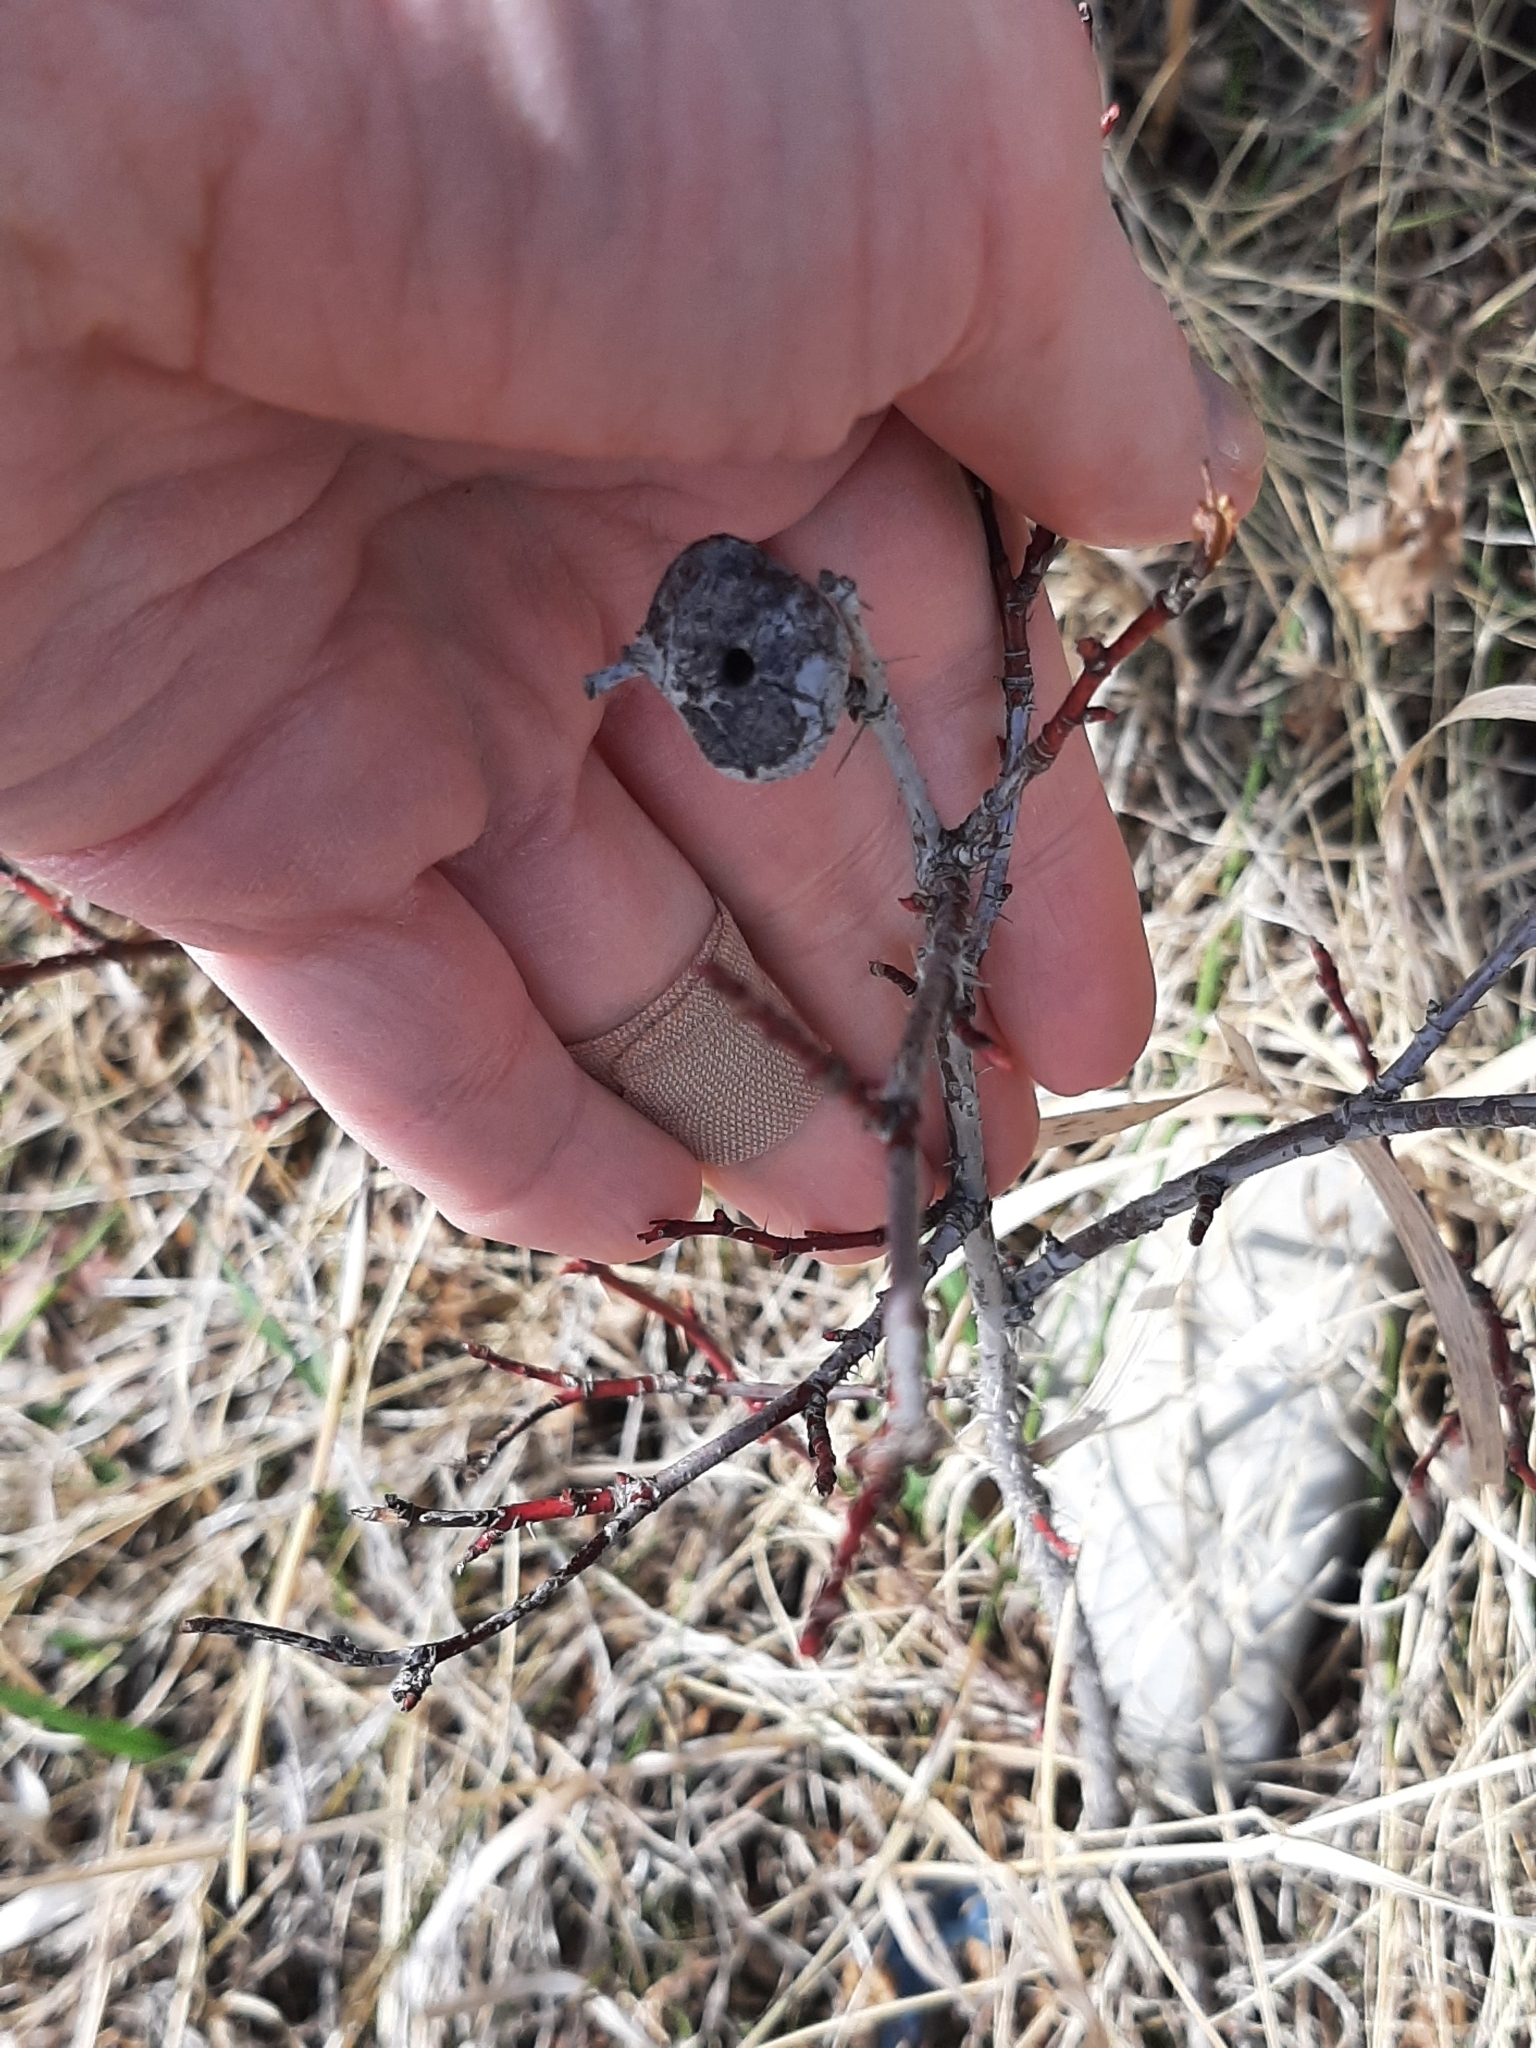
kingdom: Animalia
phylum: Arthropoda
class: Insecta
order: Hymenoptera
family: Cynipidae
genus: Diplolepis
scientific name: Diplolepis spinosa
